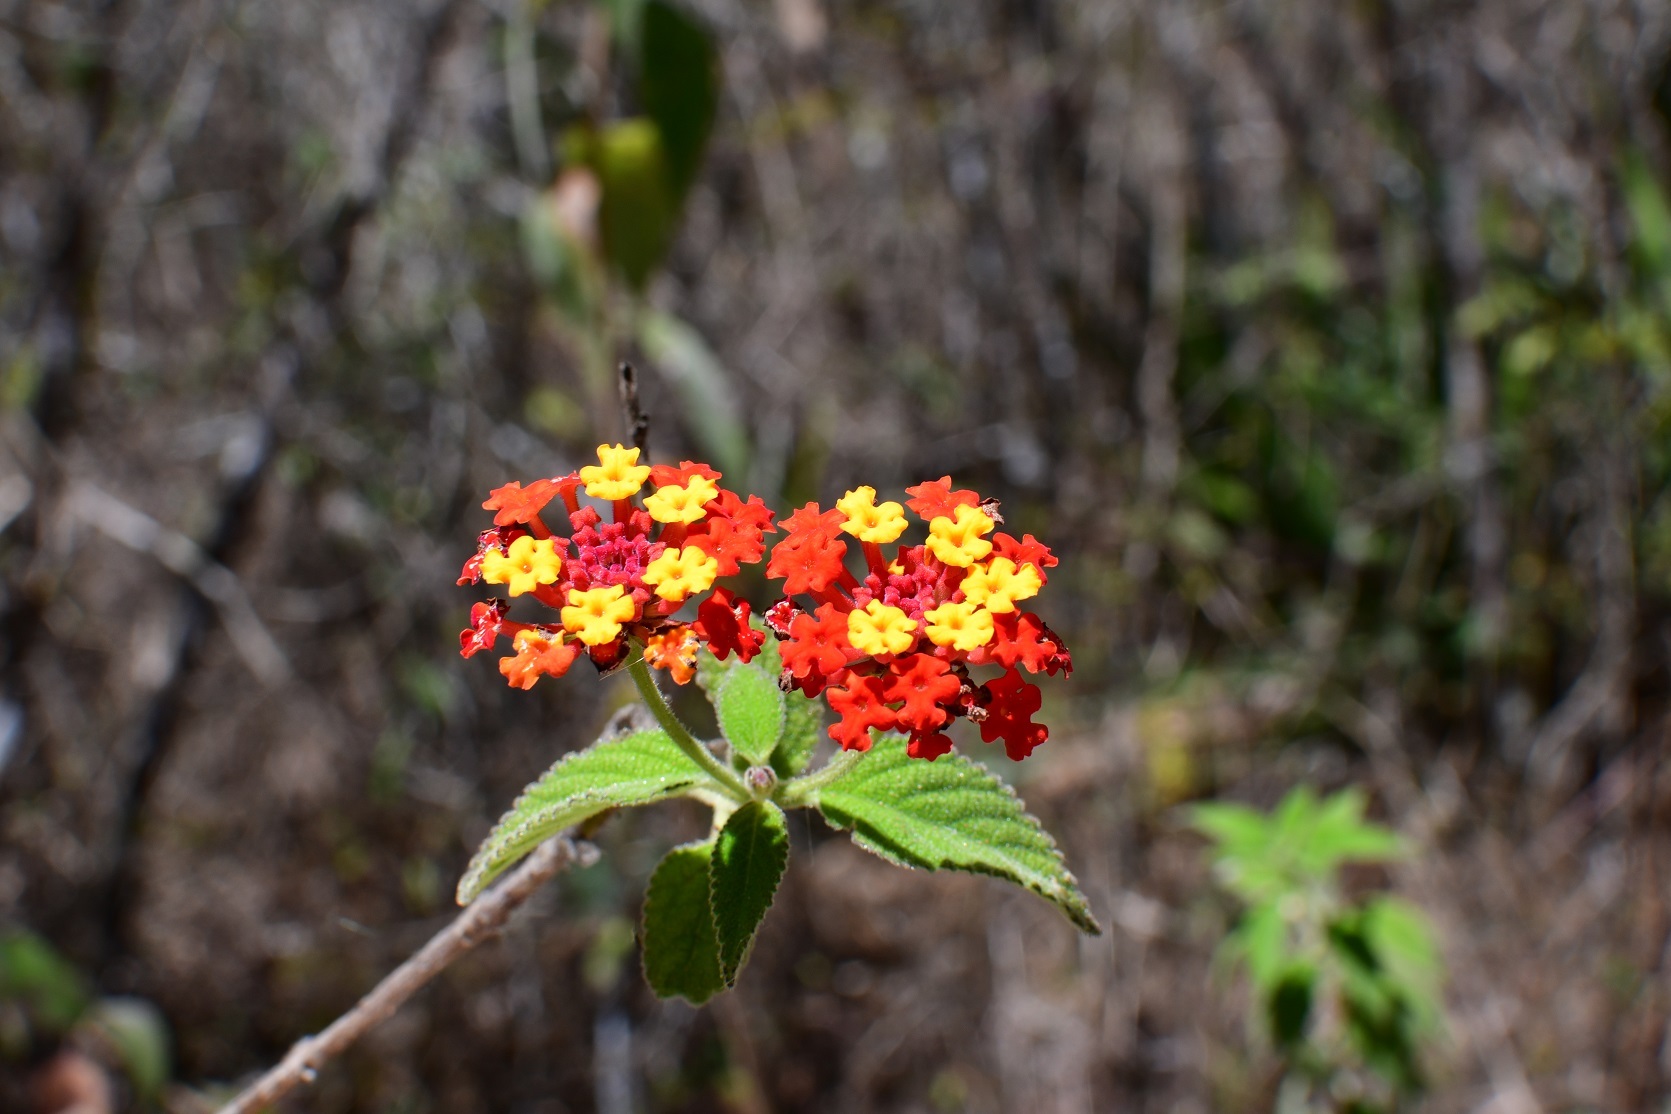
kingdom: Plantae
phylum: Tracheophyta
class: Magnoliopsida
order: Lamiales
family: Verbenaceae
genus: Lantana
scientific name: Lantana horrida
